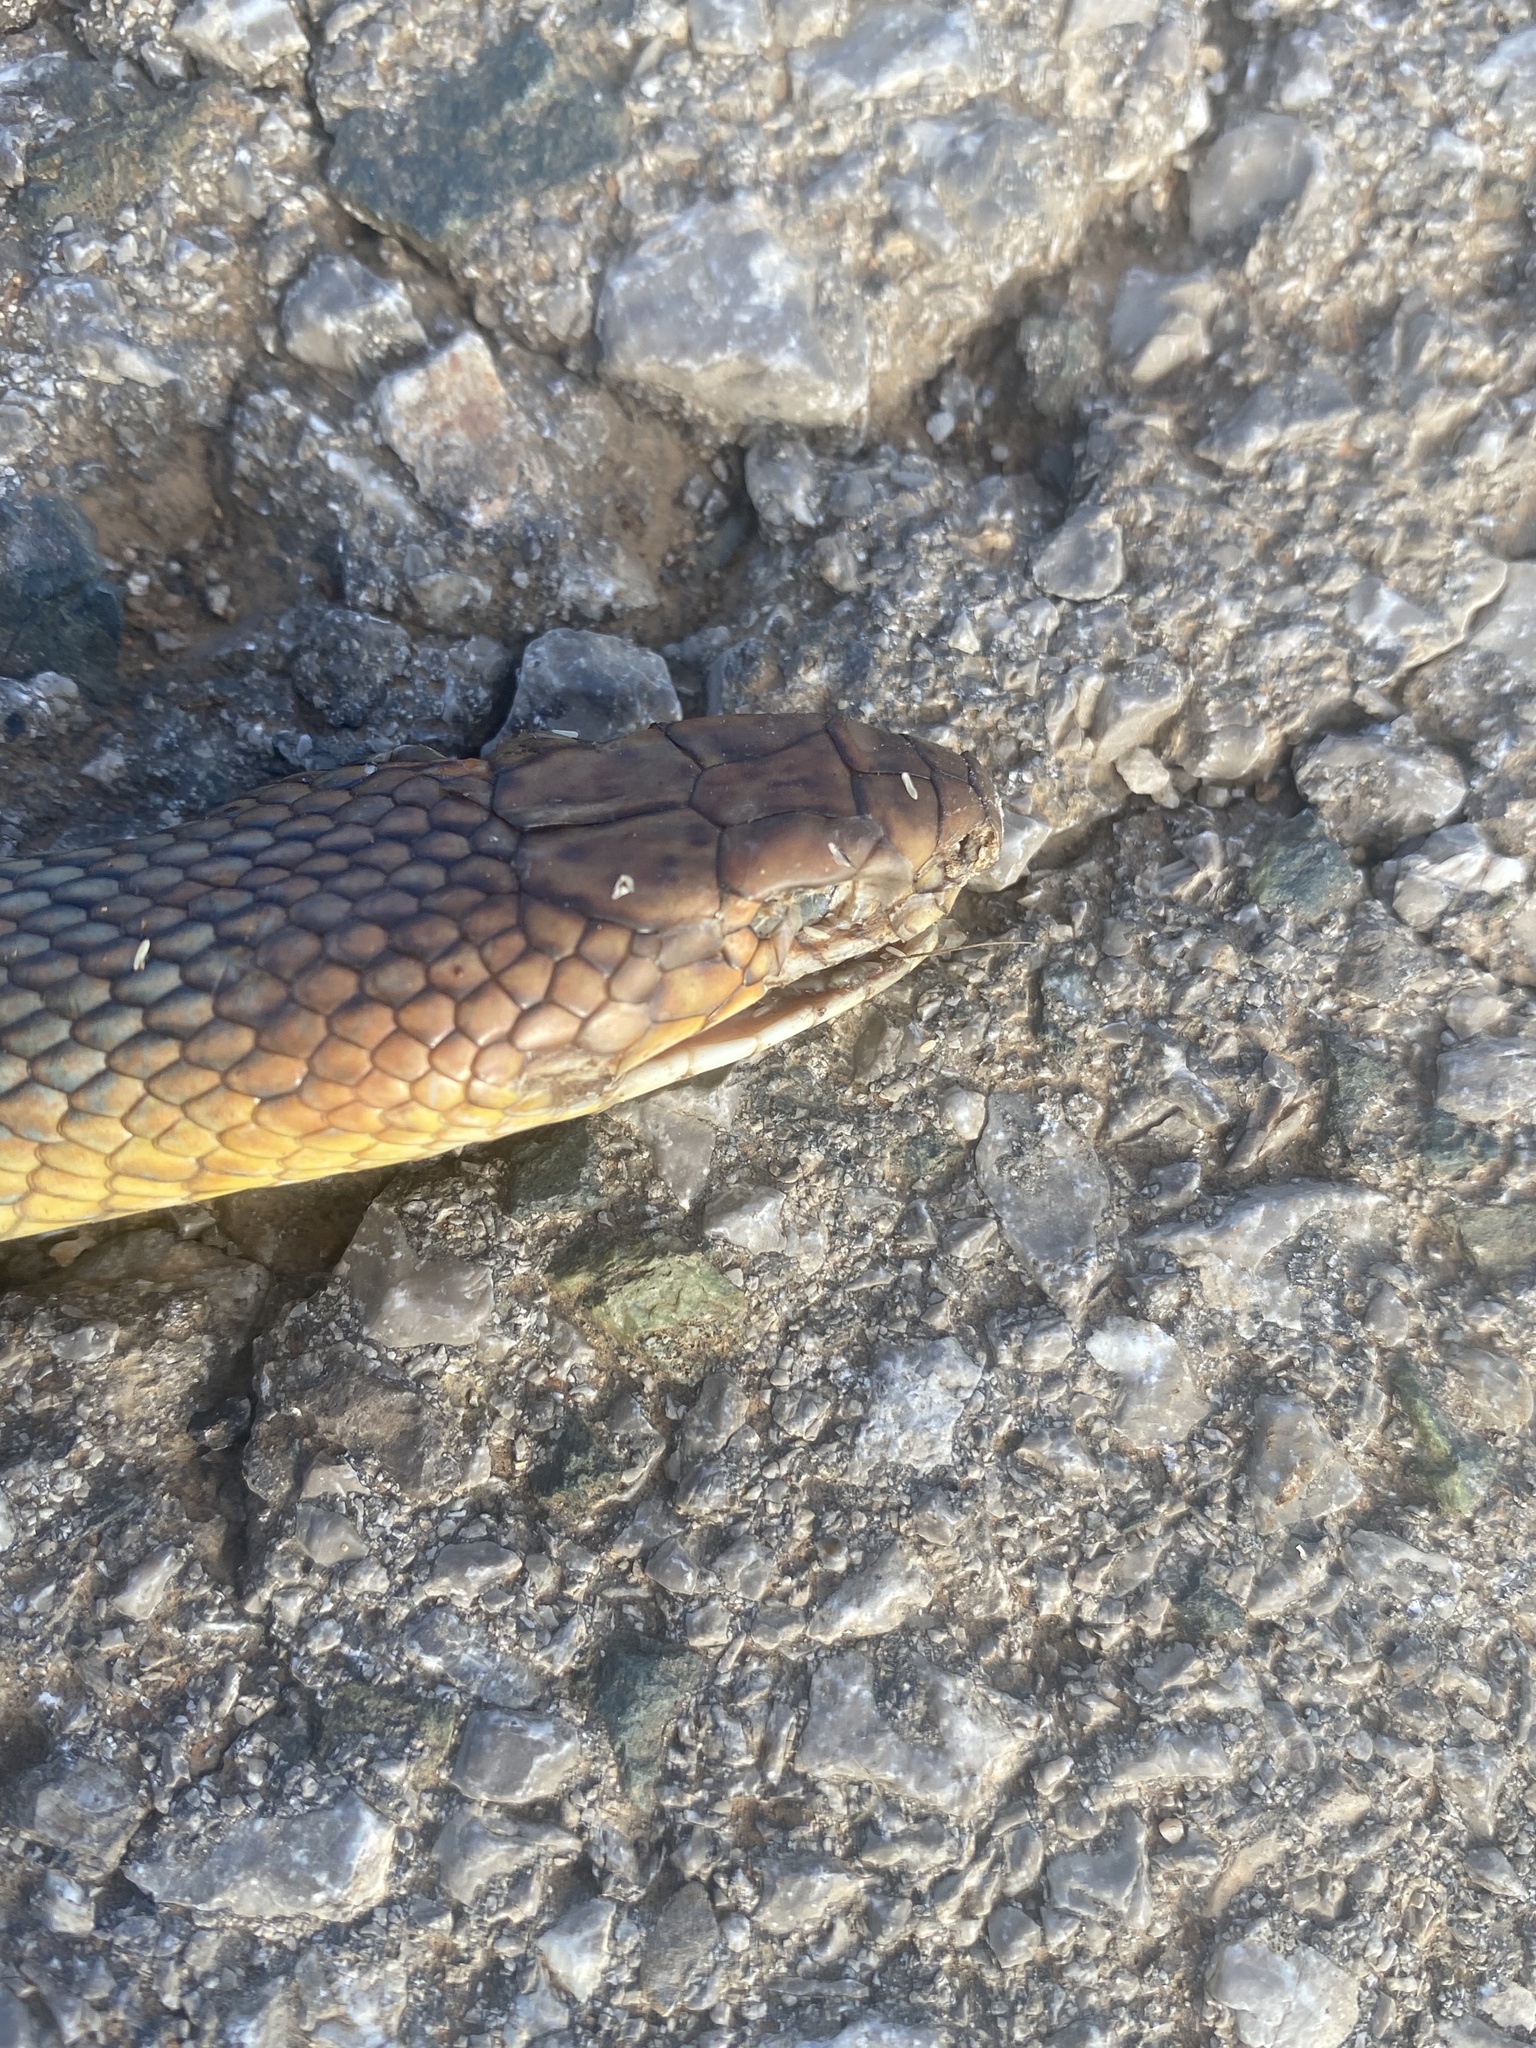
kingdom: Animalia
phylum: Chordata
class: Squamata
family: Colubridae
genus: Dolichophis
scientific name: Dolichophis caspius
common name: Large whip snake
